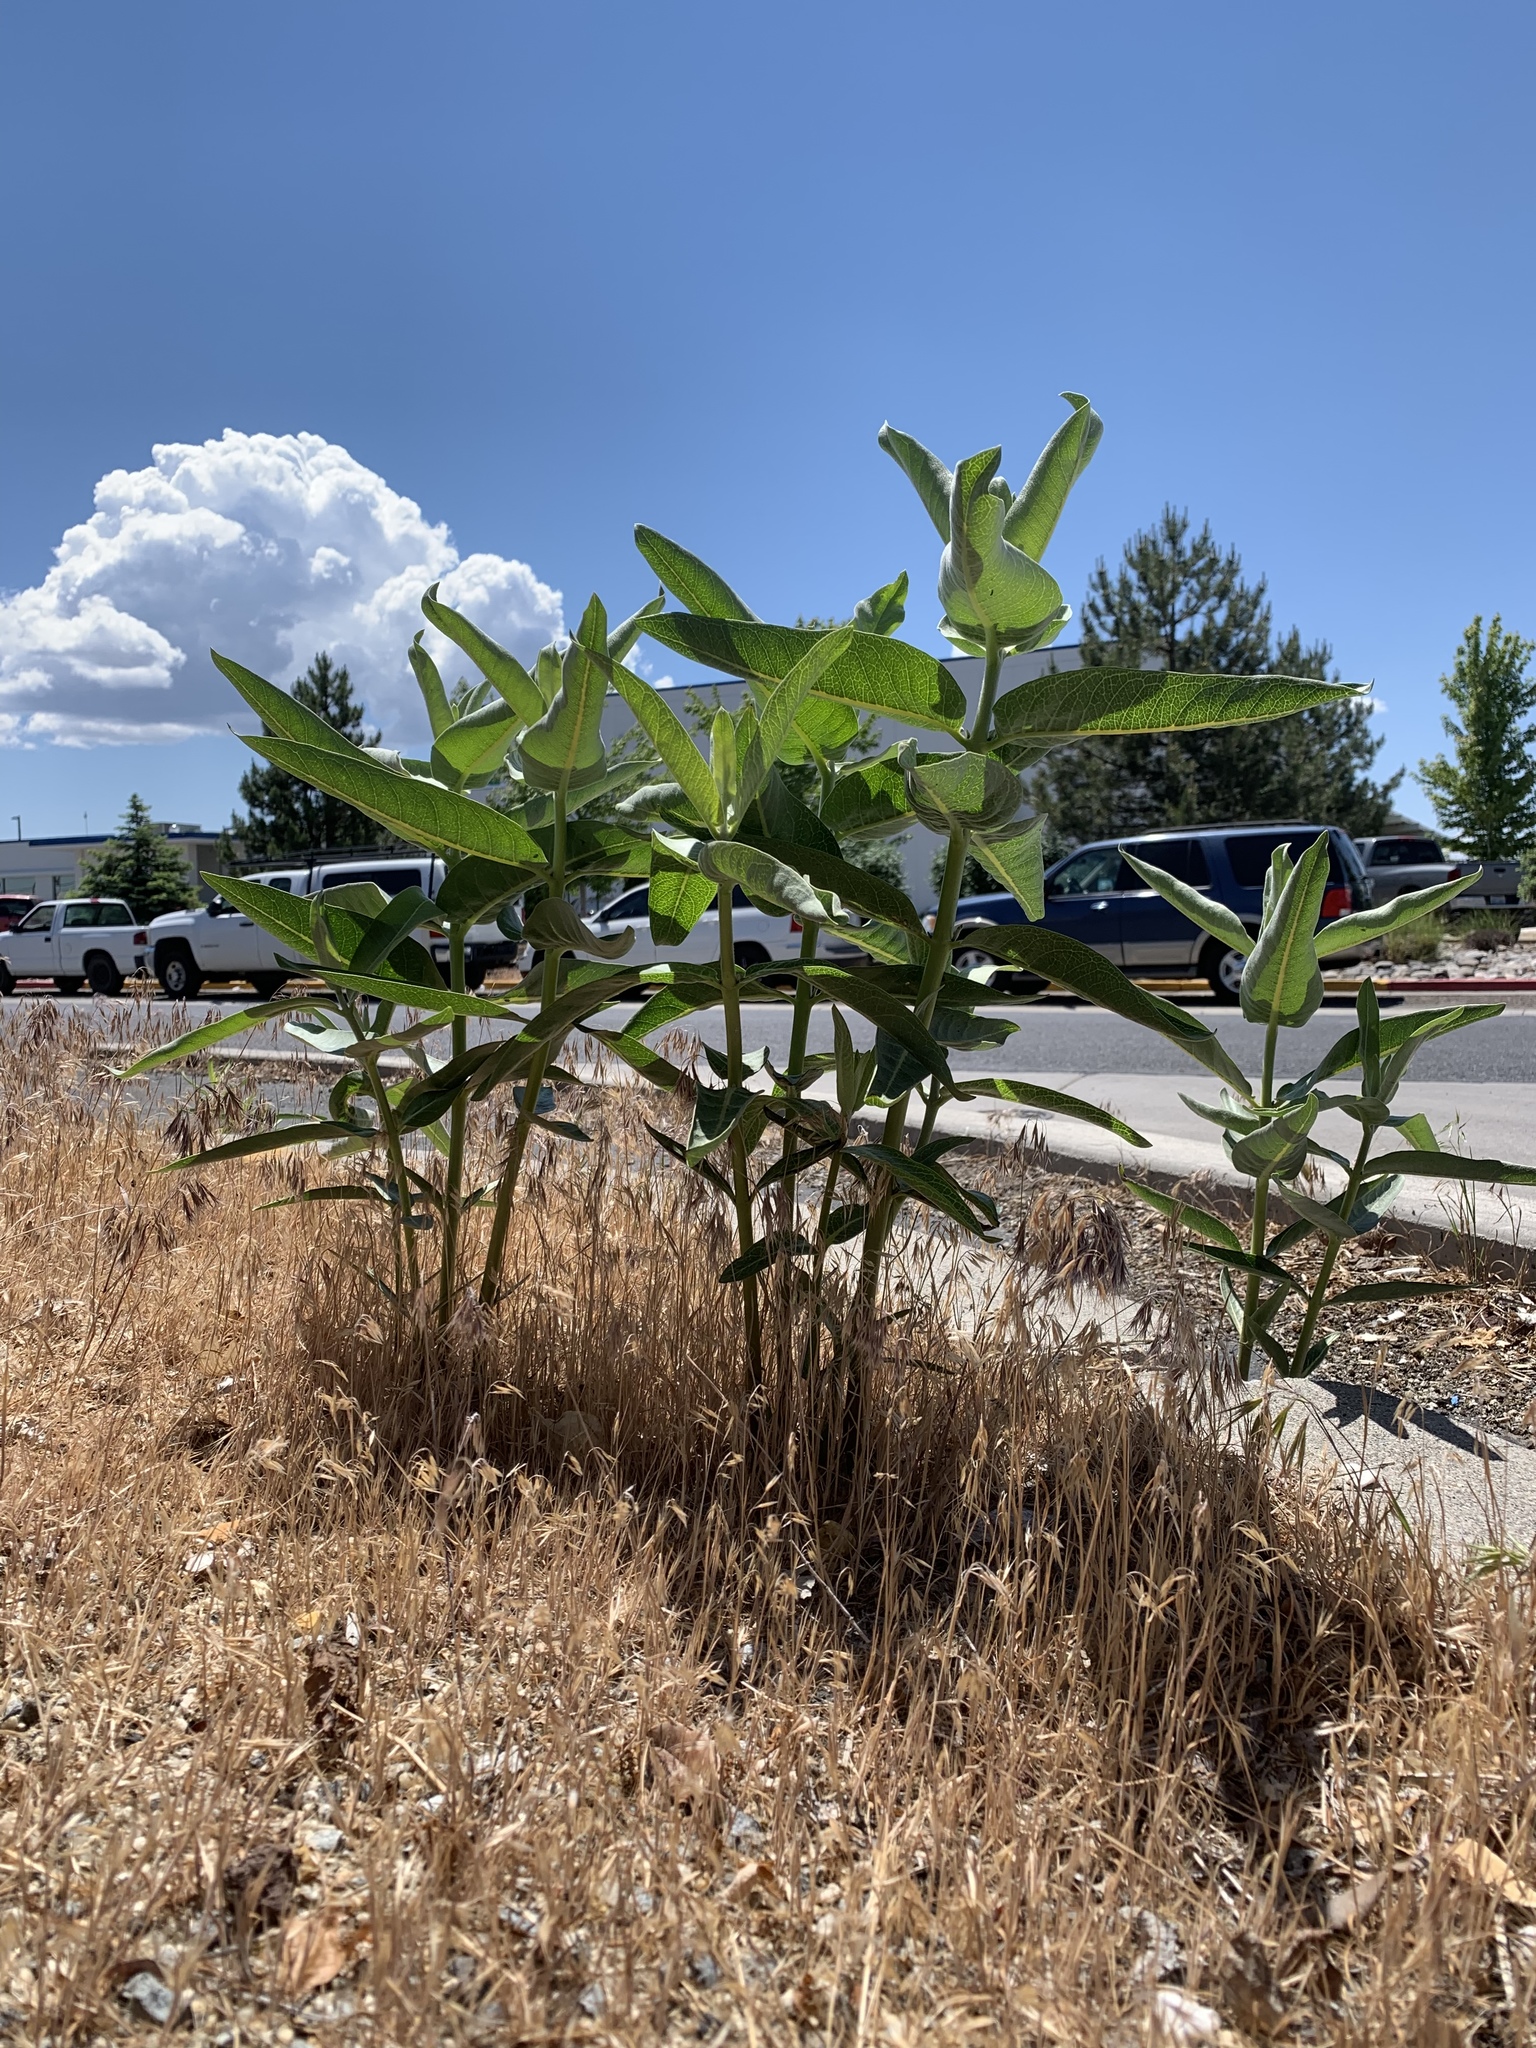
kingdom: Plantae
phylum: Tracheophyta
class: Magnoliopsida
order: Gentianales
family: Apocynaceae
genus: Asclepias
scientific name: Asclepias speciosa
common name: Showy milkweed
